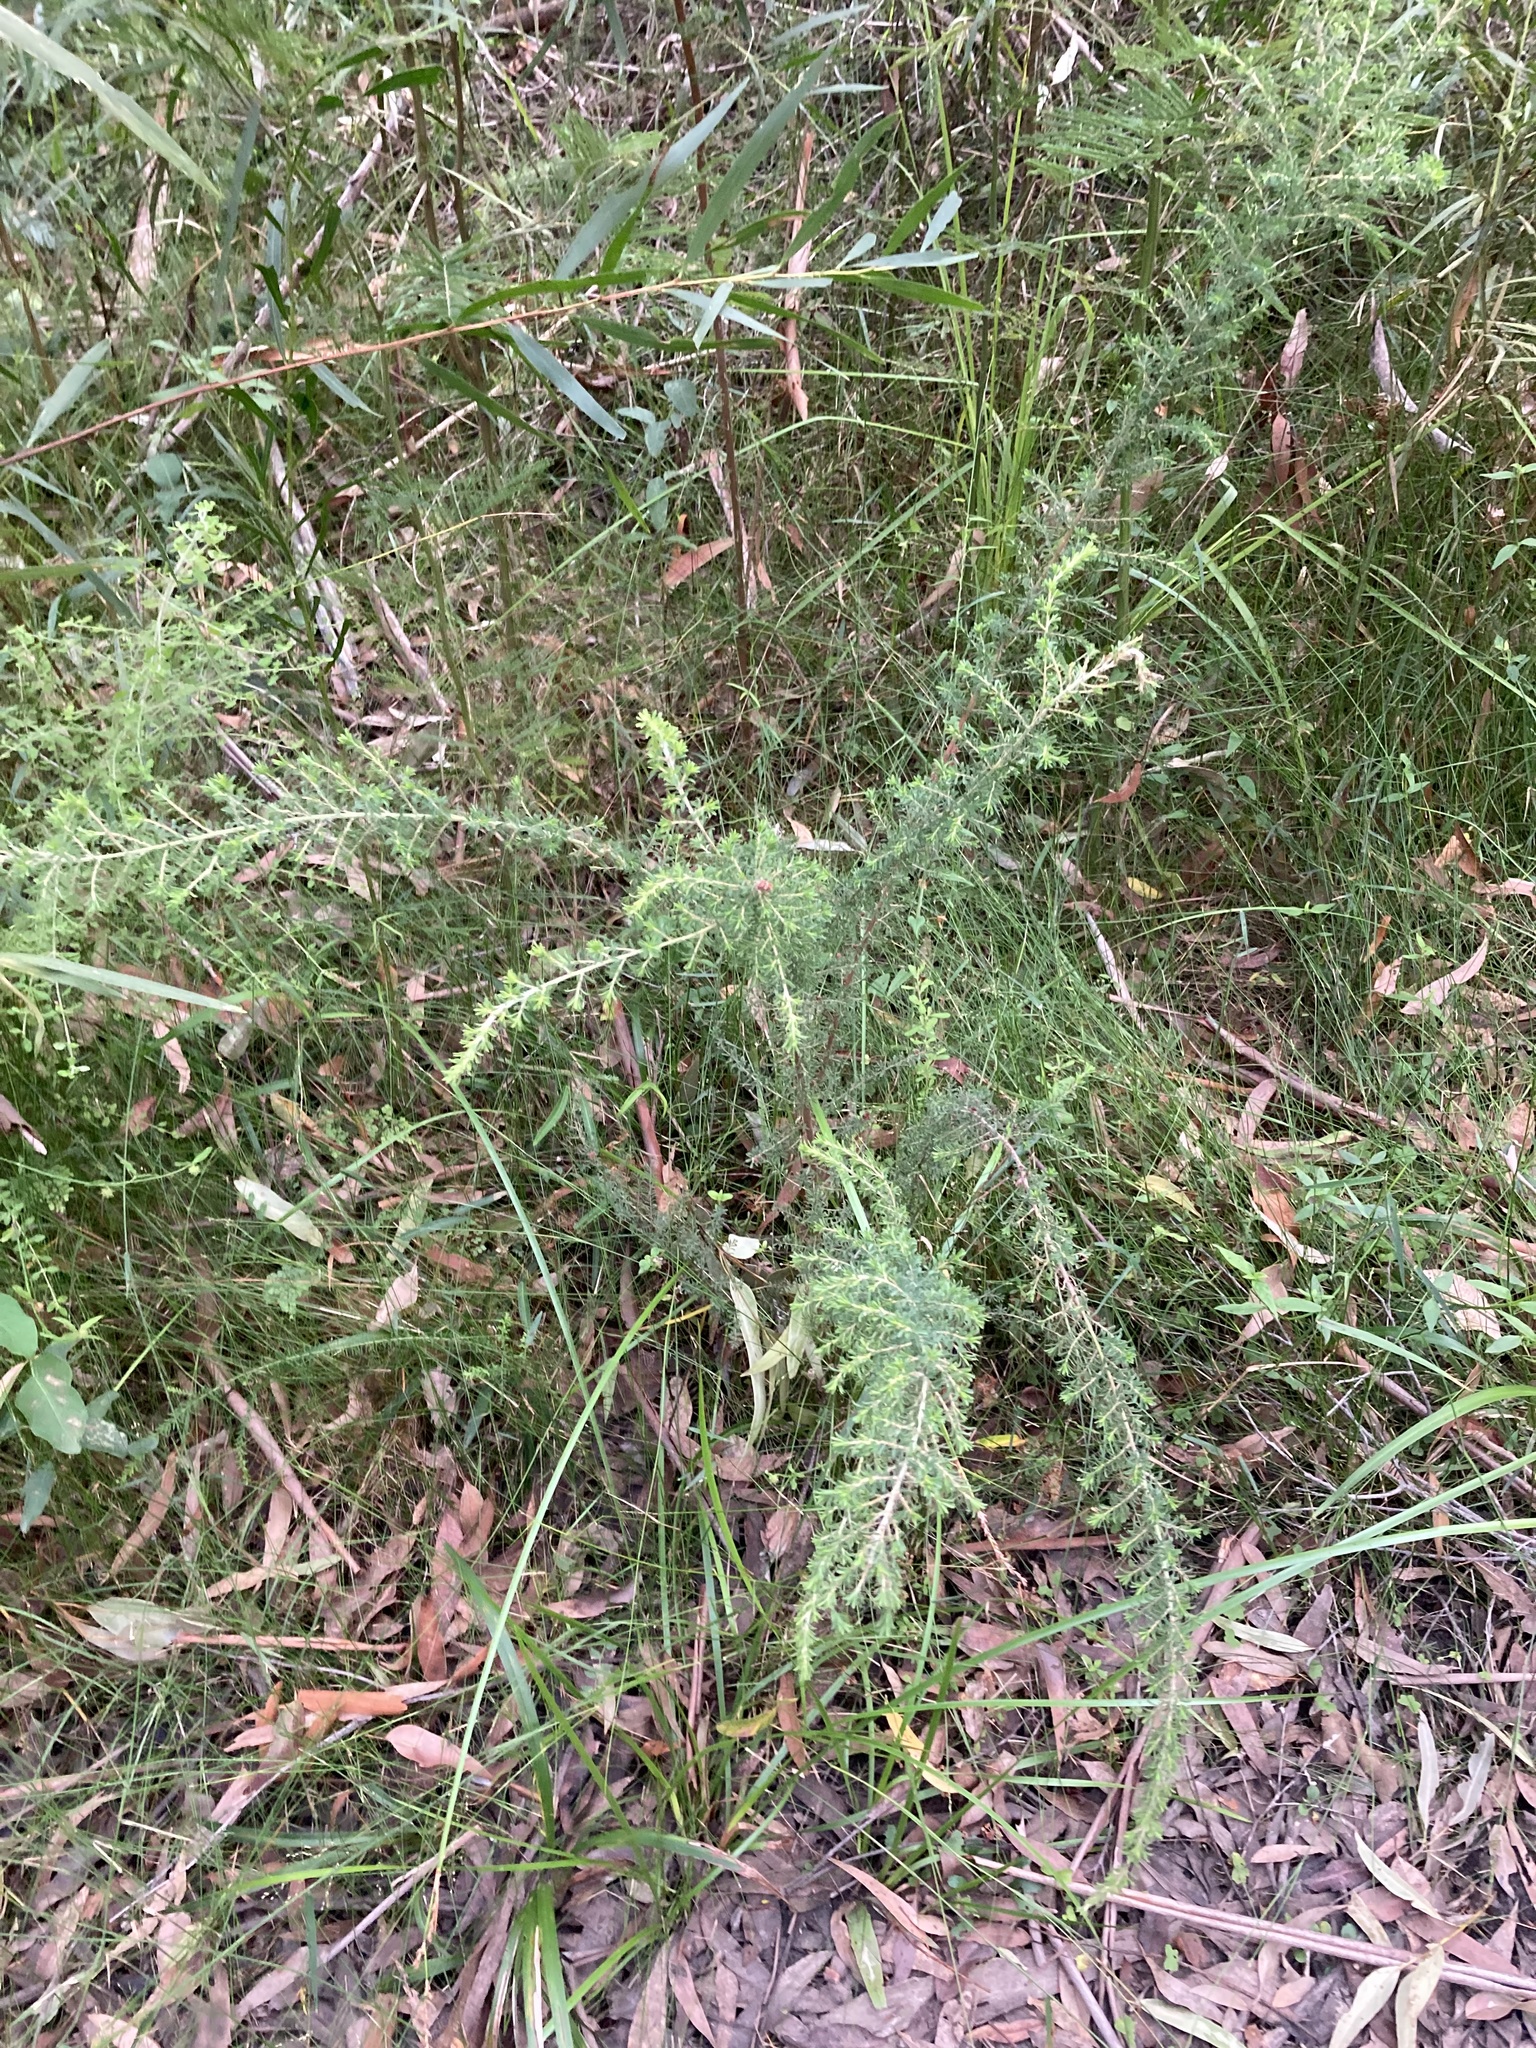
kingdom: Plantae
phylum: Tracheophyta
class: Magnoliopsida
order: Myrtales
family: Myrtaceae
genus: Kunzea
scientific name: Kunzea ambigua
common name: Tickbush
